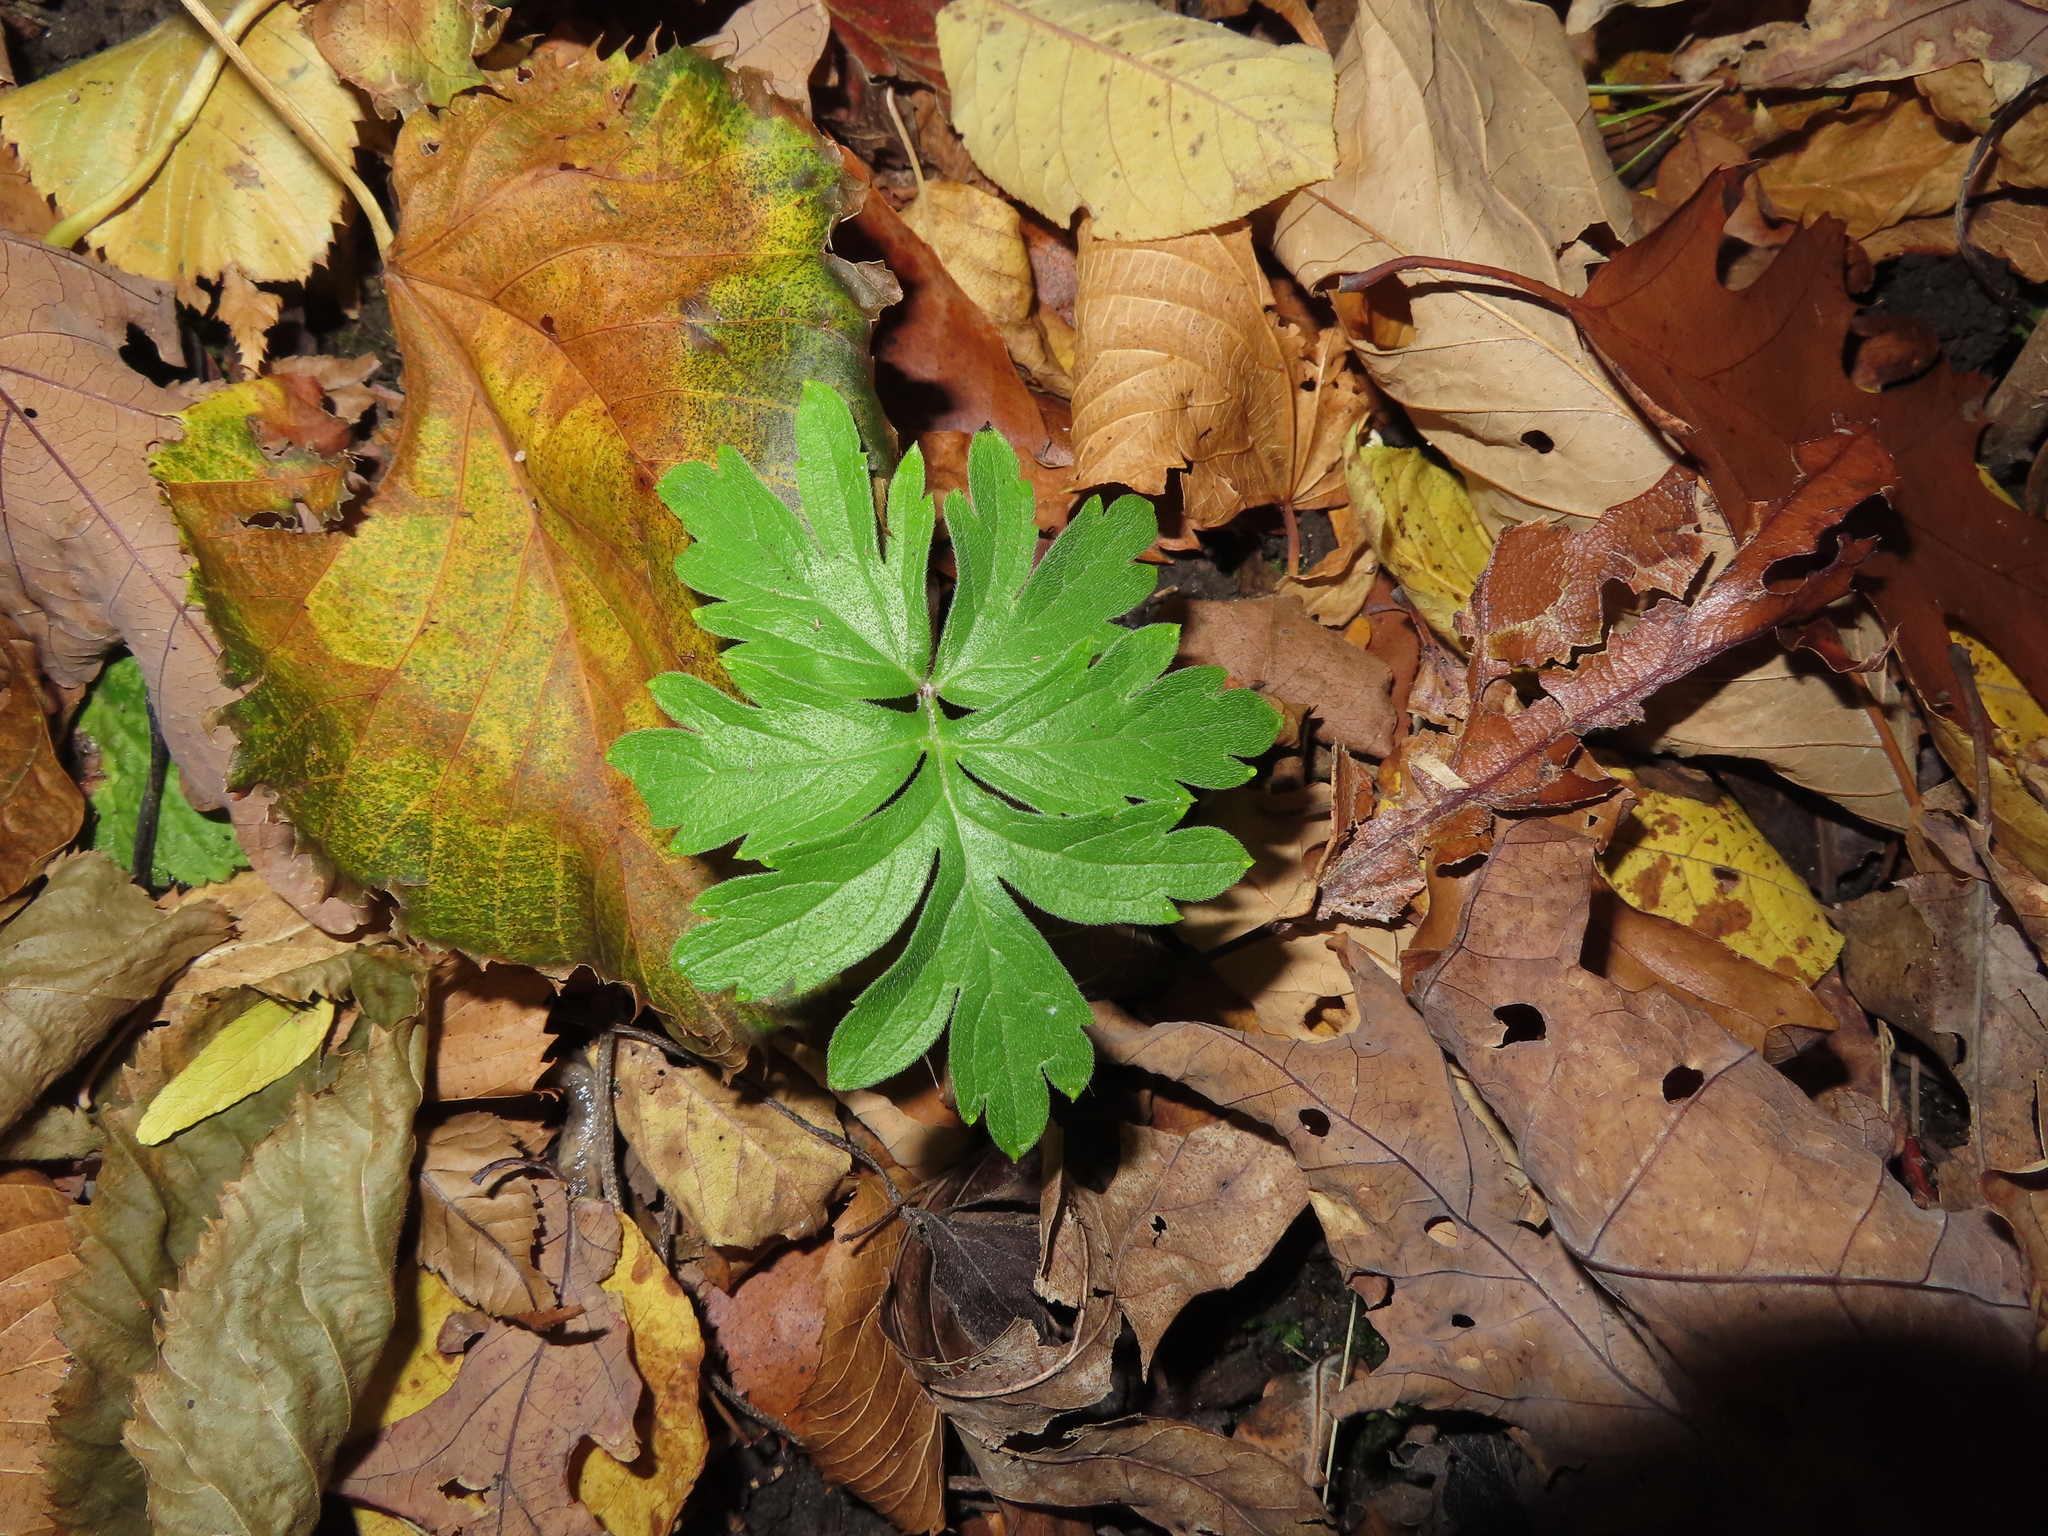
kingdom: Plantae
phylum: Tracheophyta
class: Magnoliopsida
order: Boraginales
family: Hydrophyllaceae
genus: Hydrophyllum
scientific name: Hydrophyllum virginianum
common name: Virginia waterleaf
